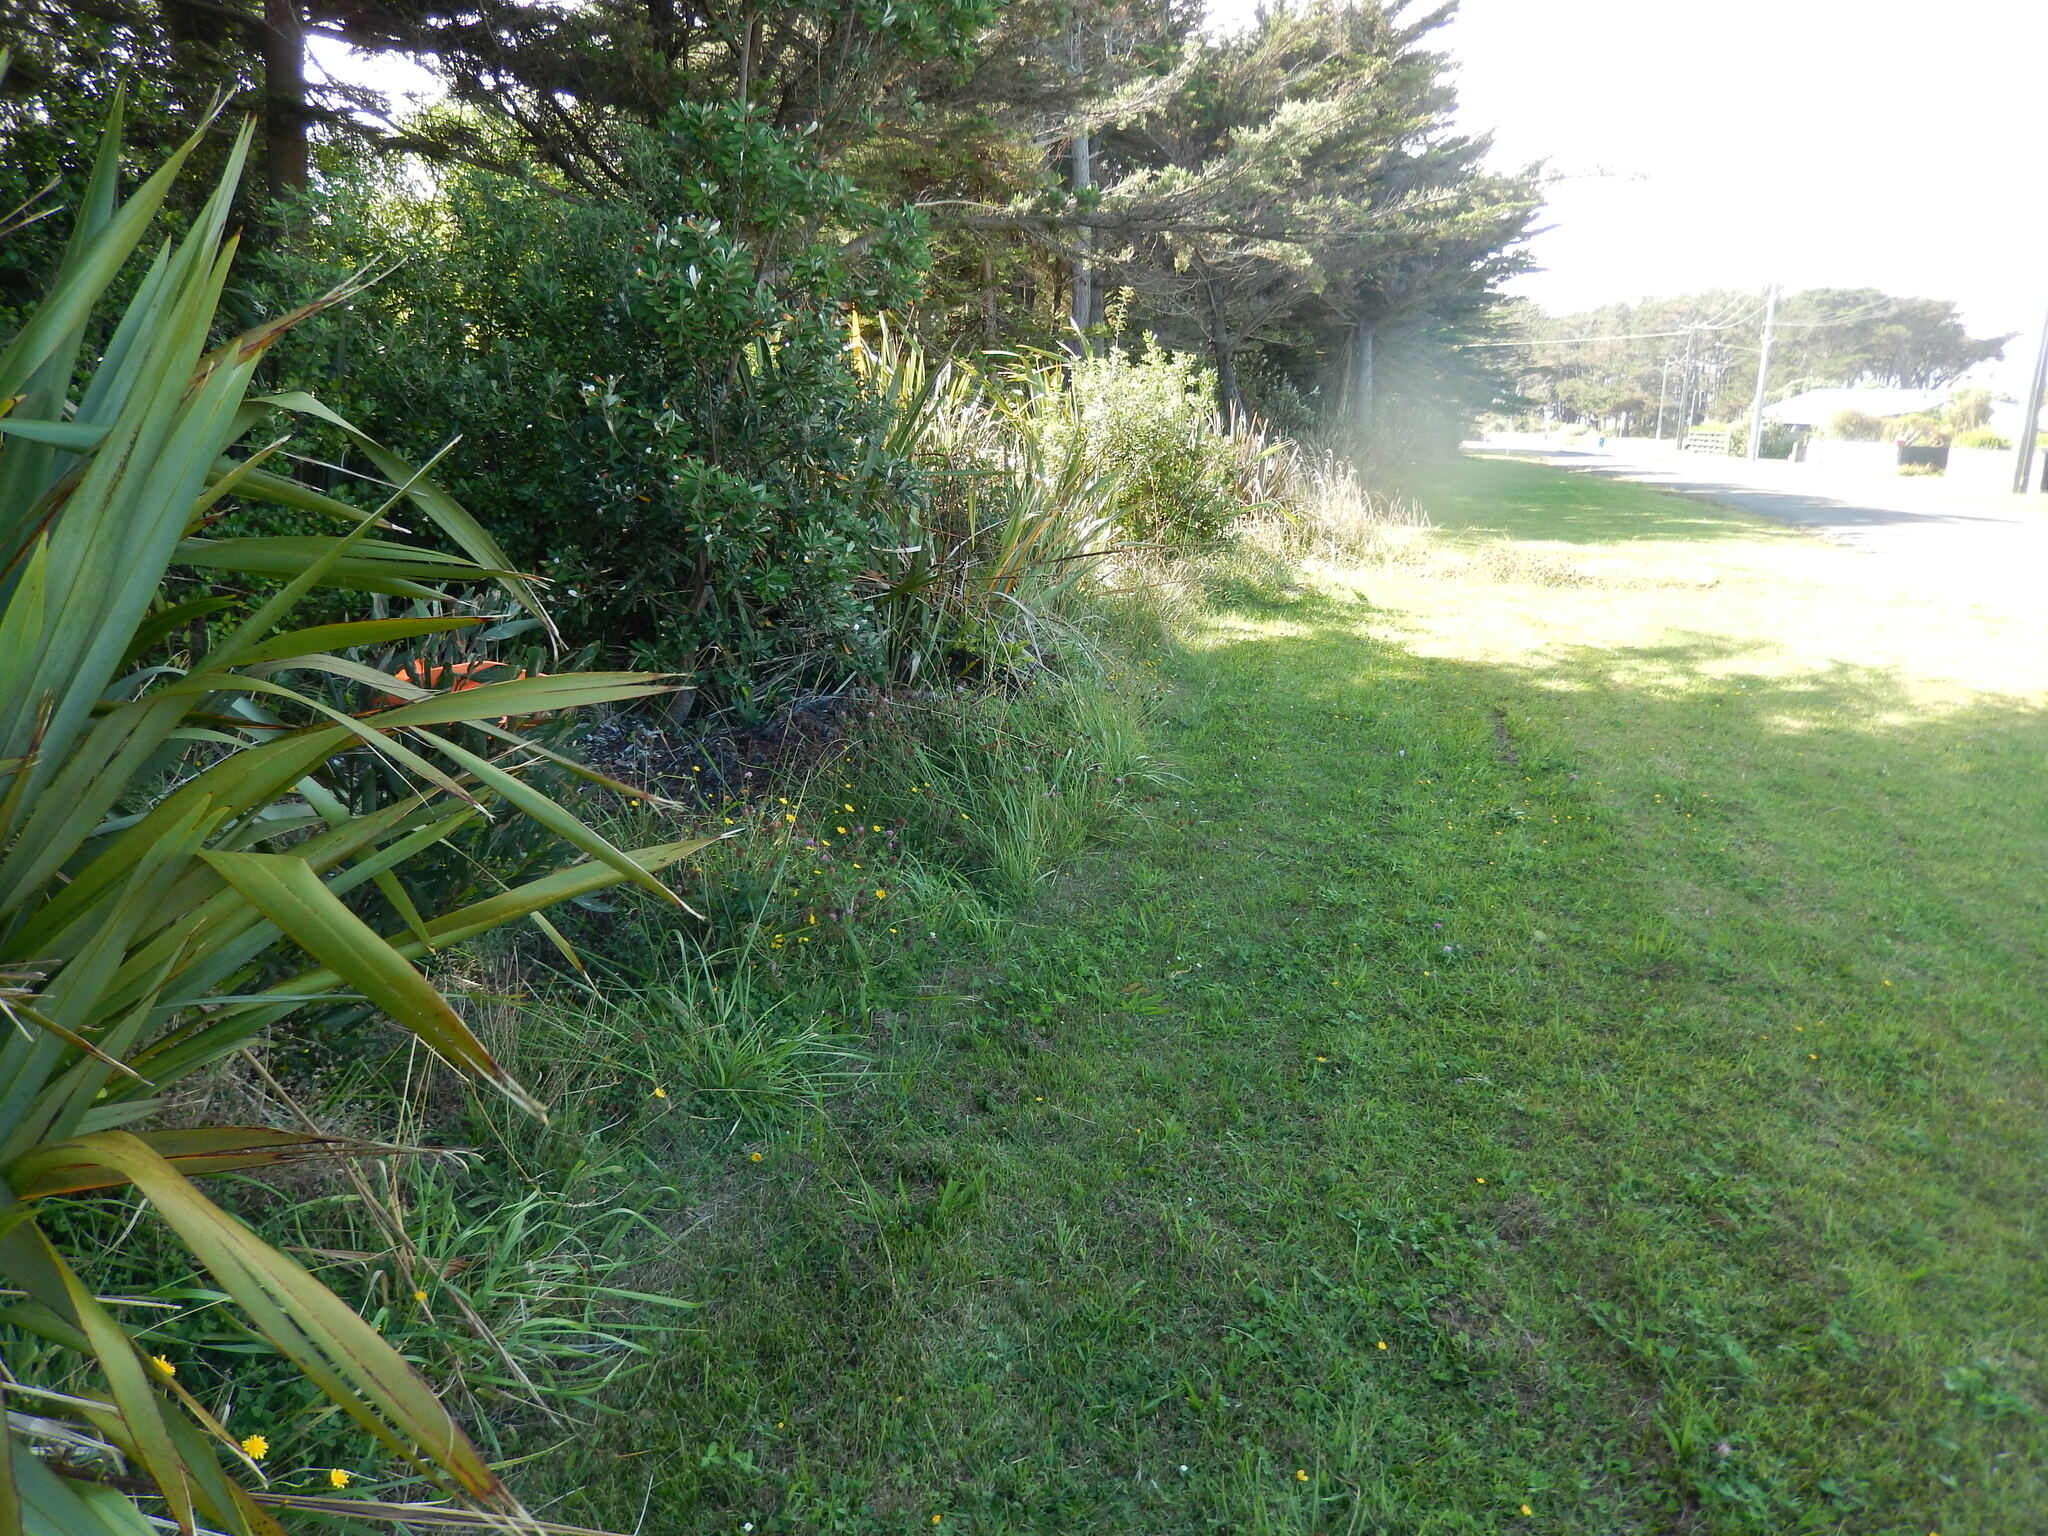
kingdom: Plantae
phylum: Tracheophyta
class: Magnoliopsida
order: Fabales
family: Fabaceae
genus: Acacia
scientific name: Acacia longifolia
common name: Sydney golden wattle
